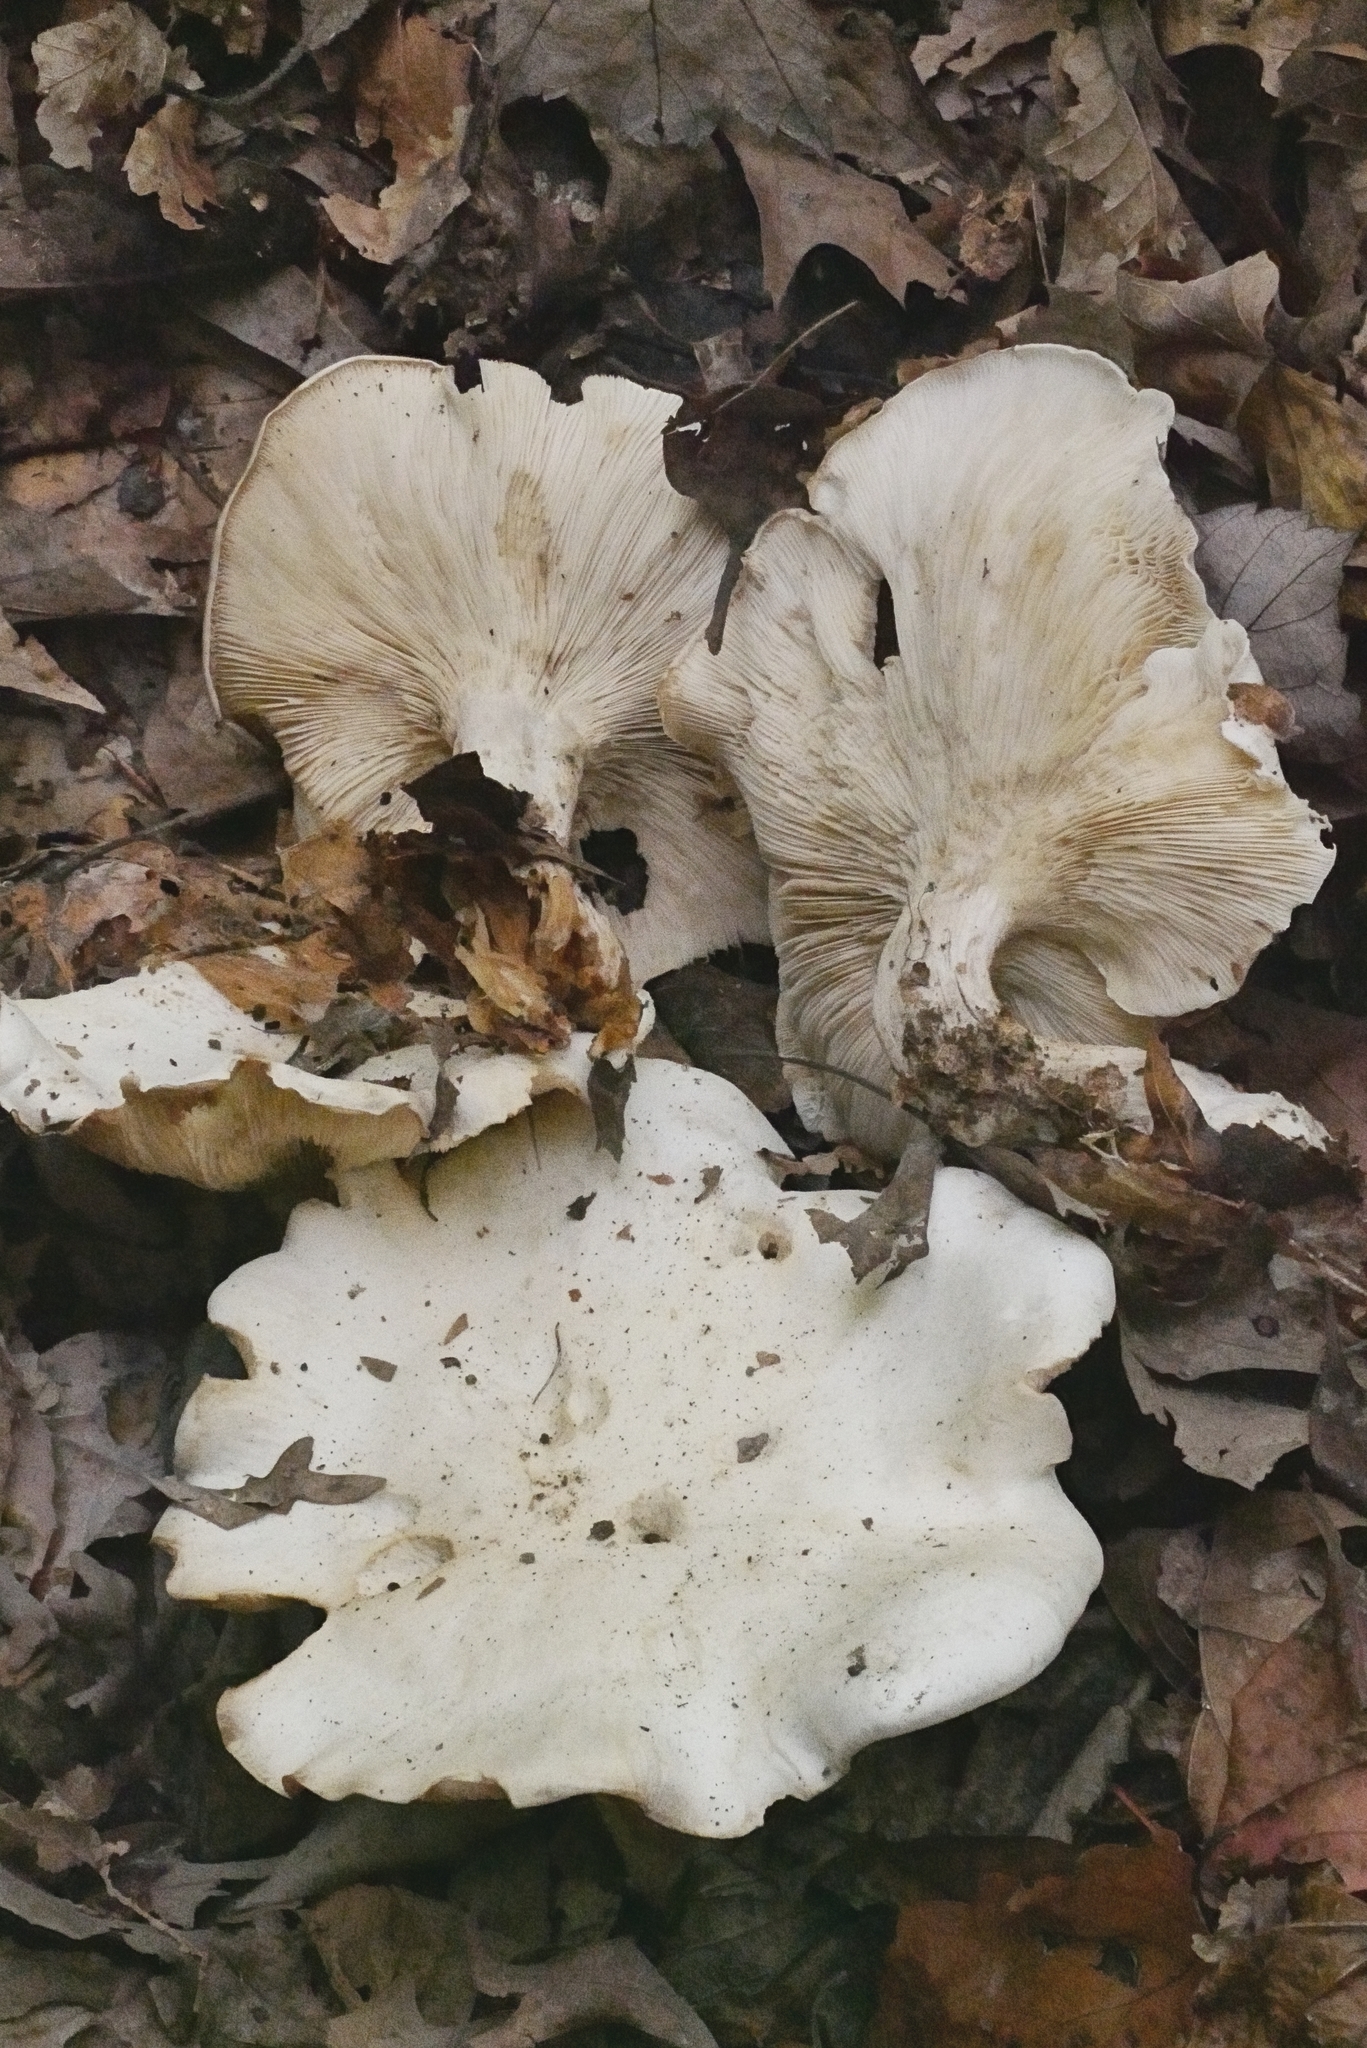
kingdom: Fungi
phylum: Basidiomycota
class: Agaricomycetes
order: Agaricales
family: Tricholomataceae
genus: Clitocybe
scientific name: Clitocybe robusta
